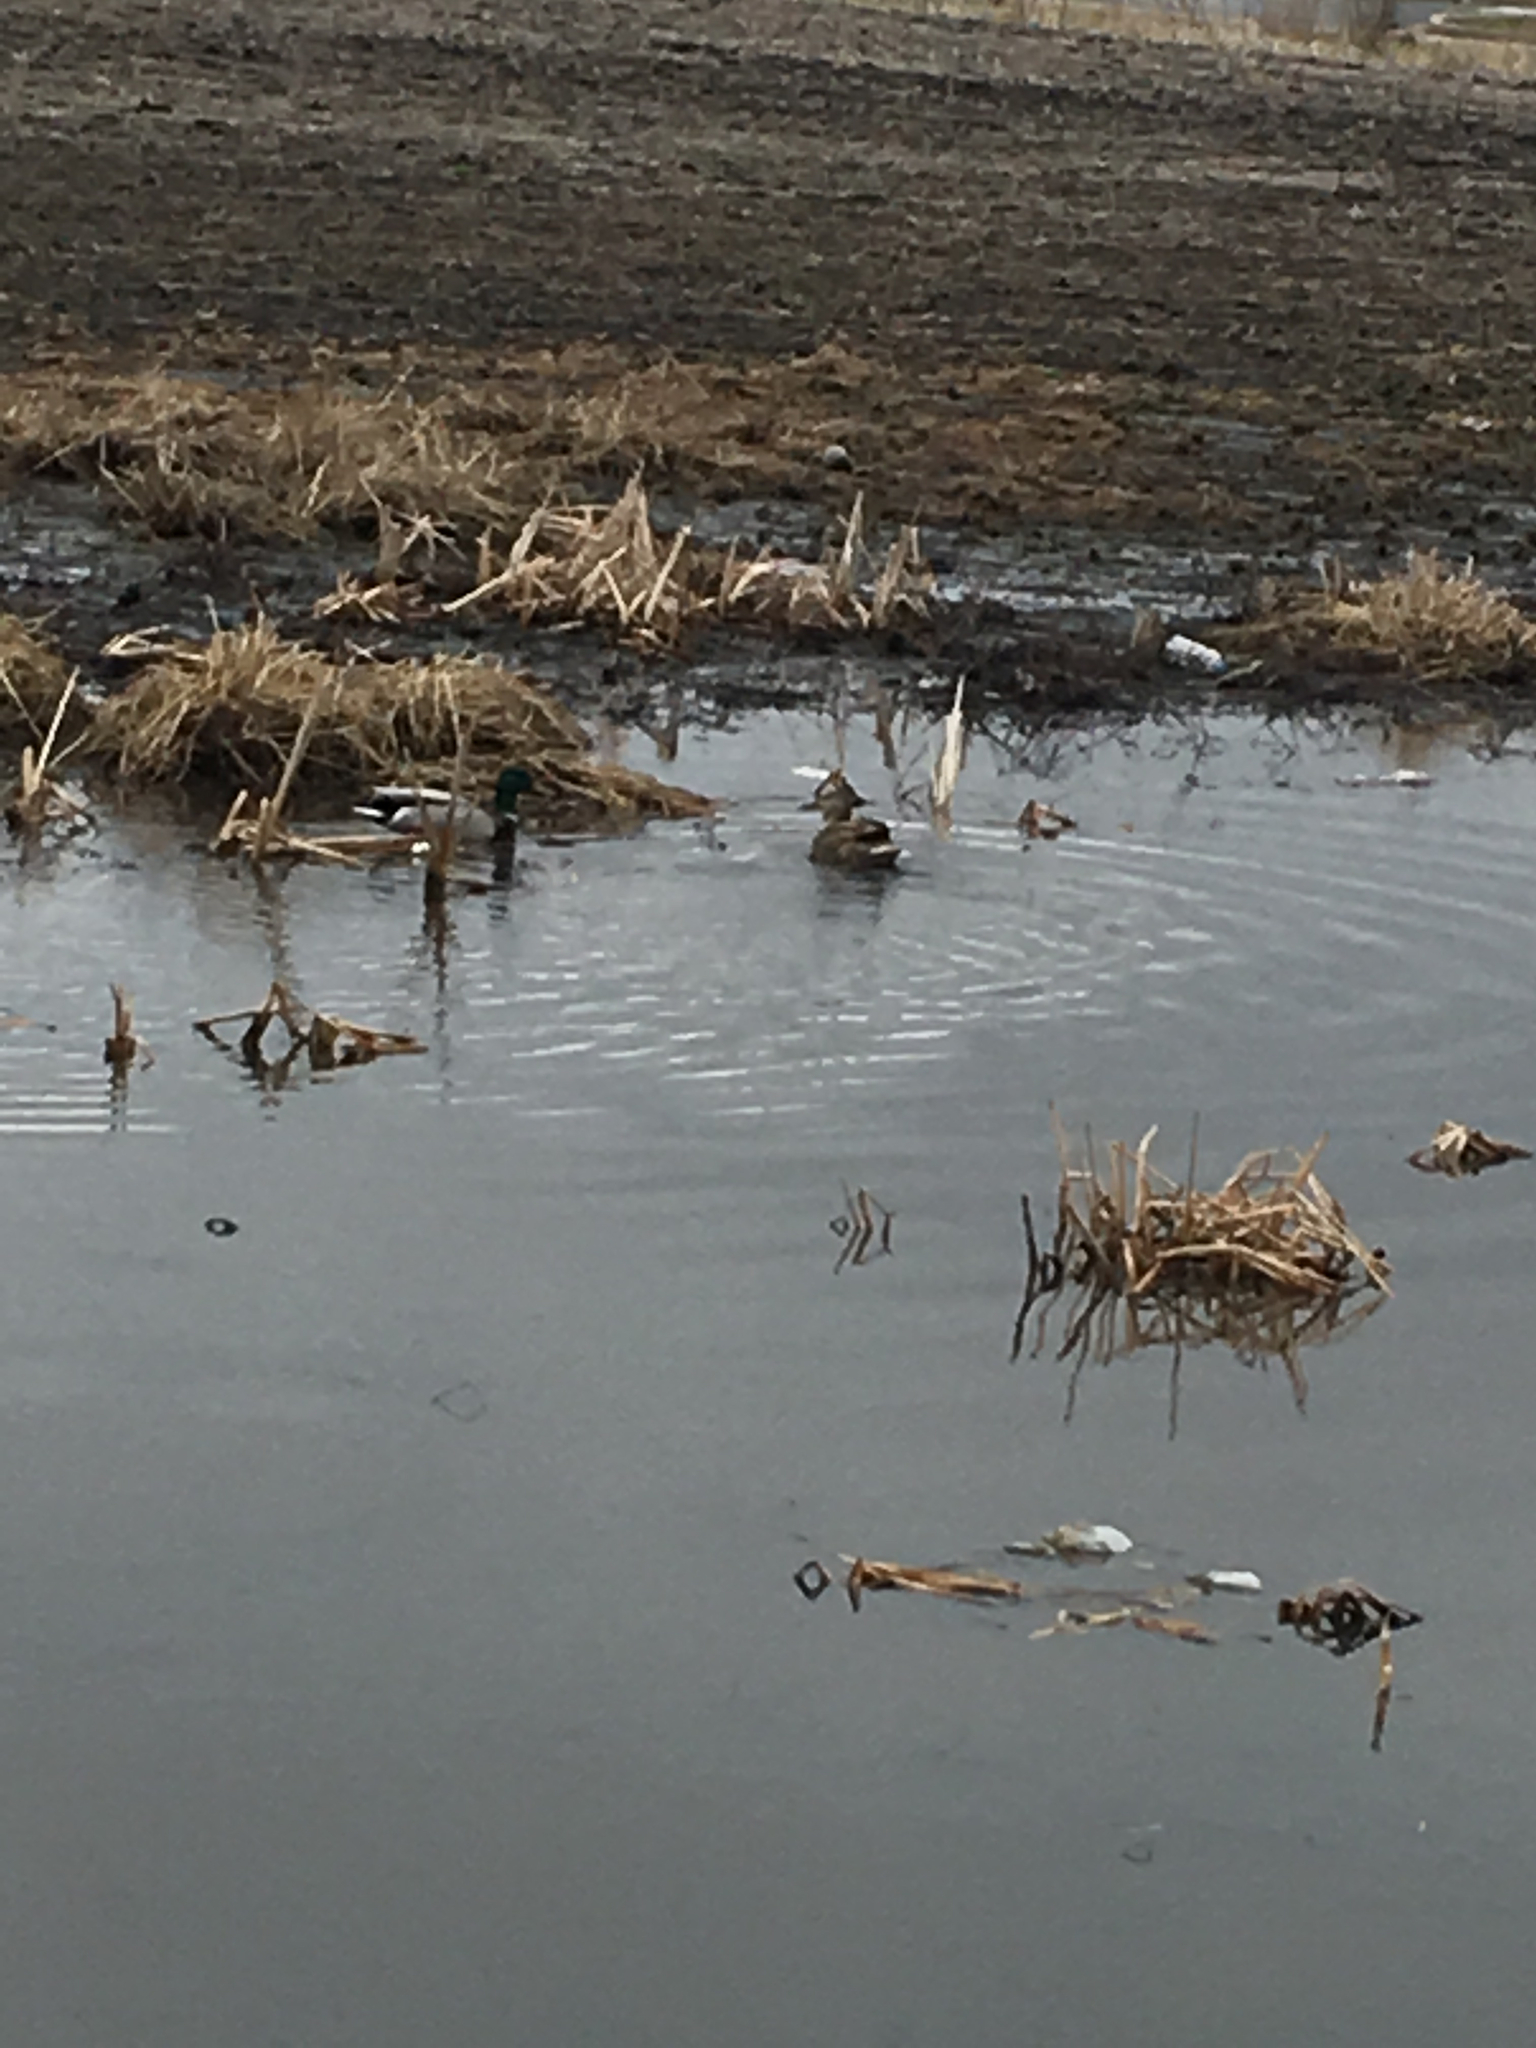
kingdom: Animalia
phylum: Chordata
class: Aves
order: Anseriformes
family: Anatidae
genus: Anas
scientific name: Anas platyrhynchos
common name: Mallard
